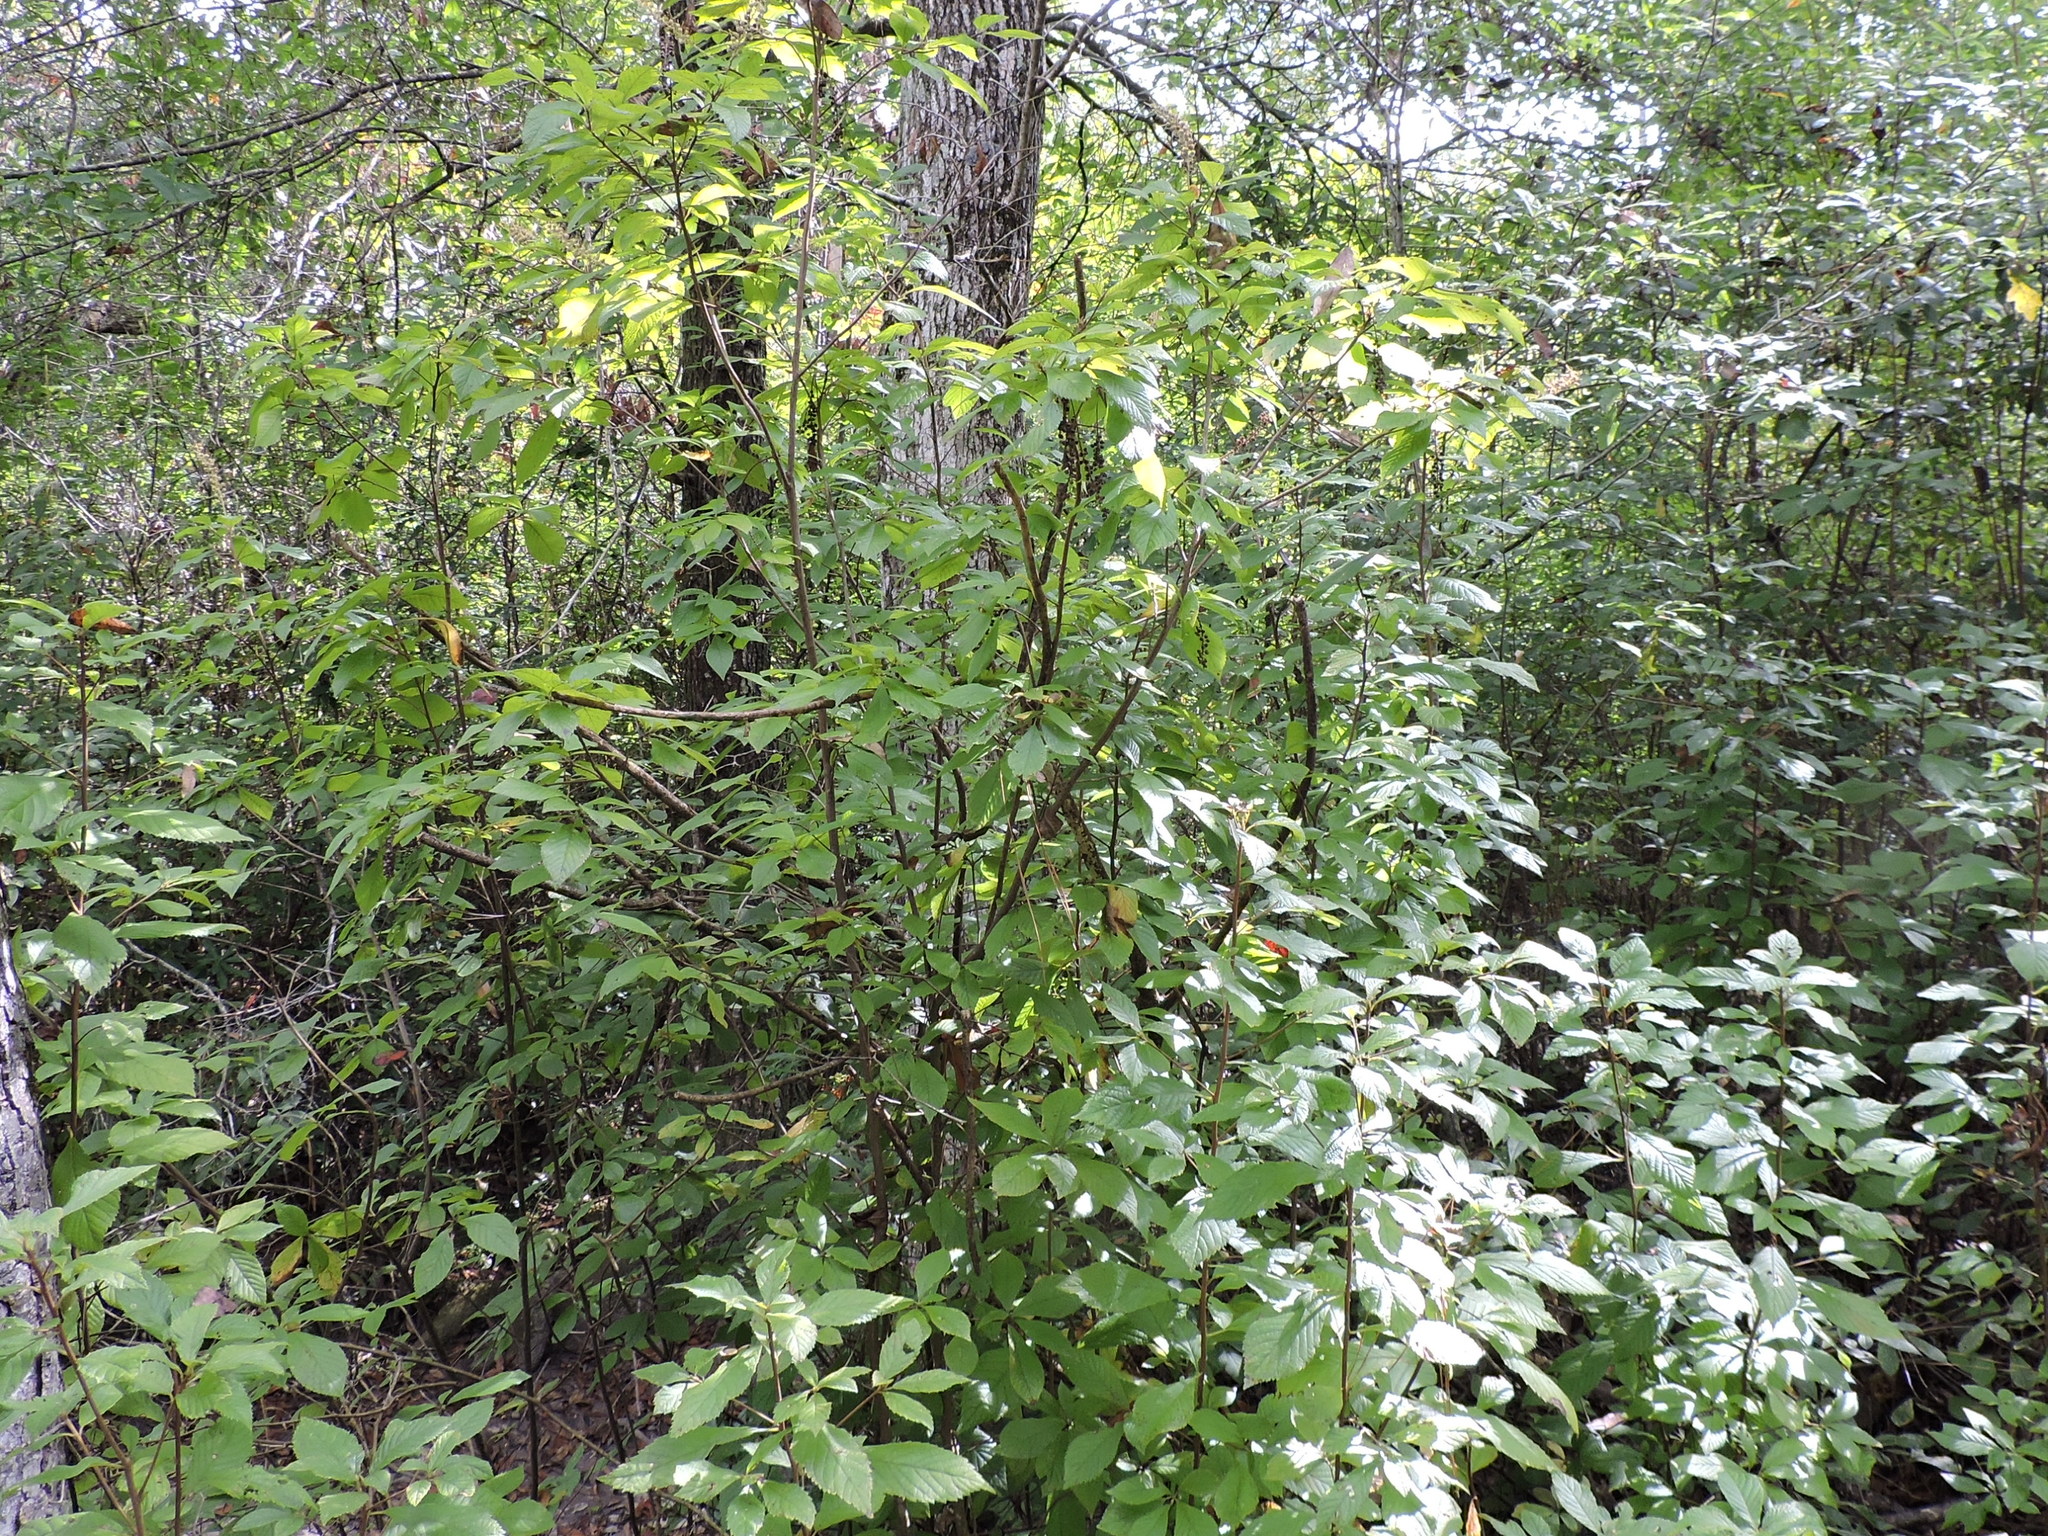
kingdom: Plantae
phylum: Tracheophyta
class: Magnoliopsida
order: Ericales
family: Clethraceae
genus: Clethra
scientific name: Clethra alnifolia
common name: Sweet pepperbush
